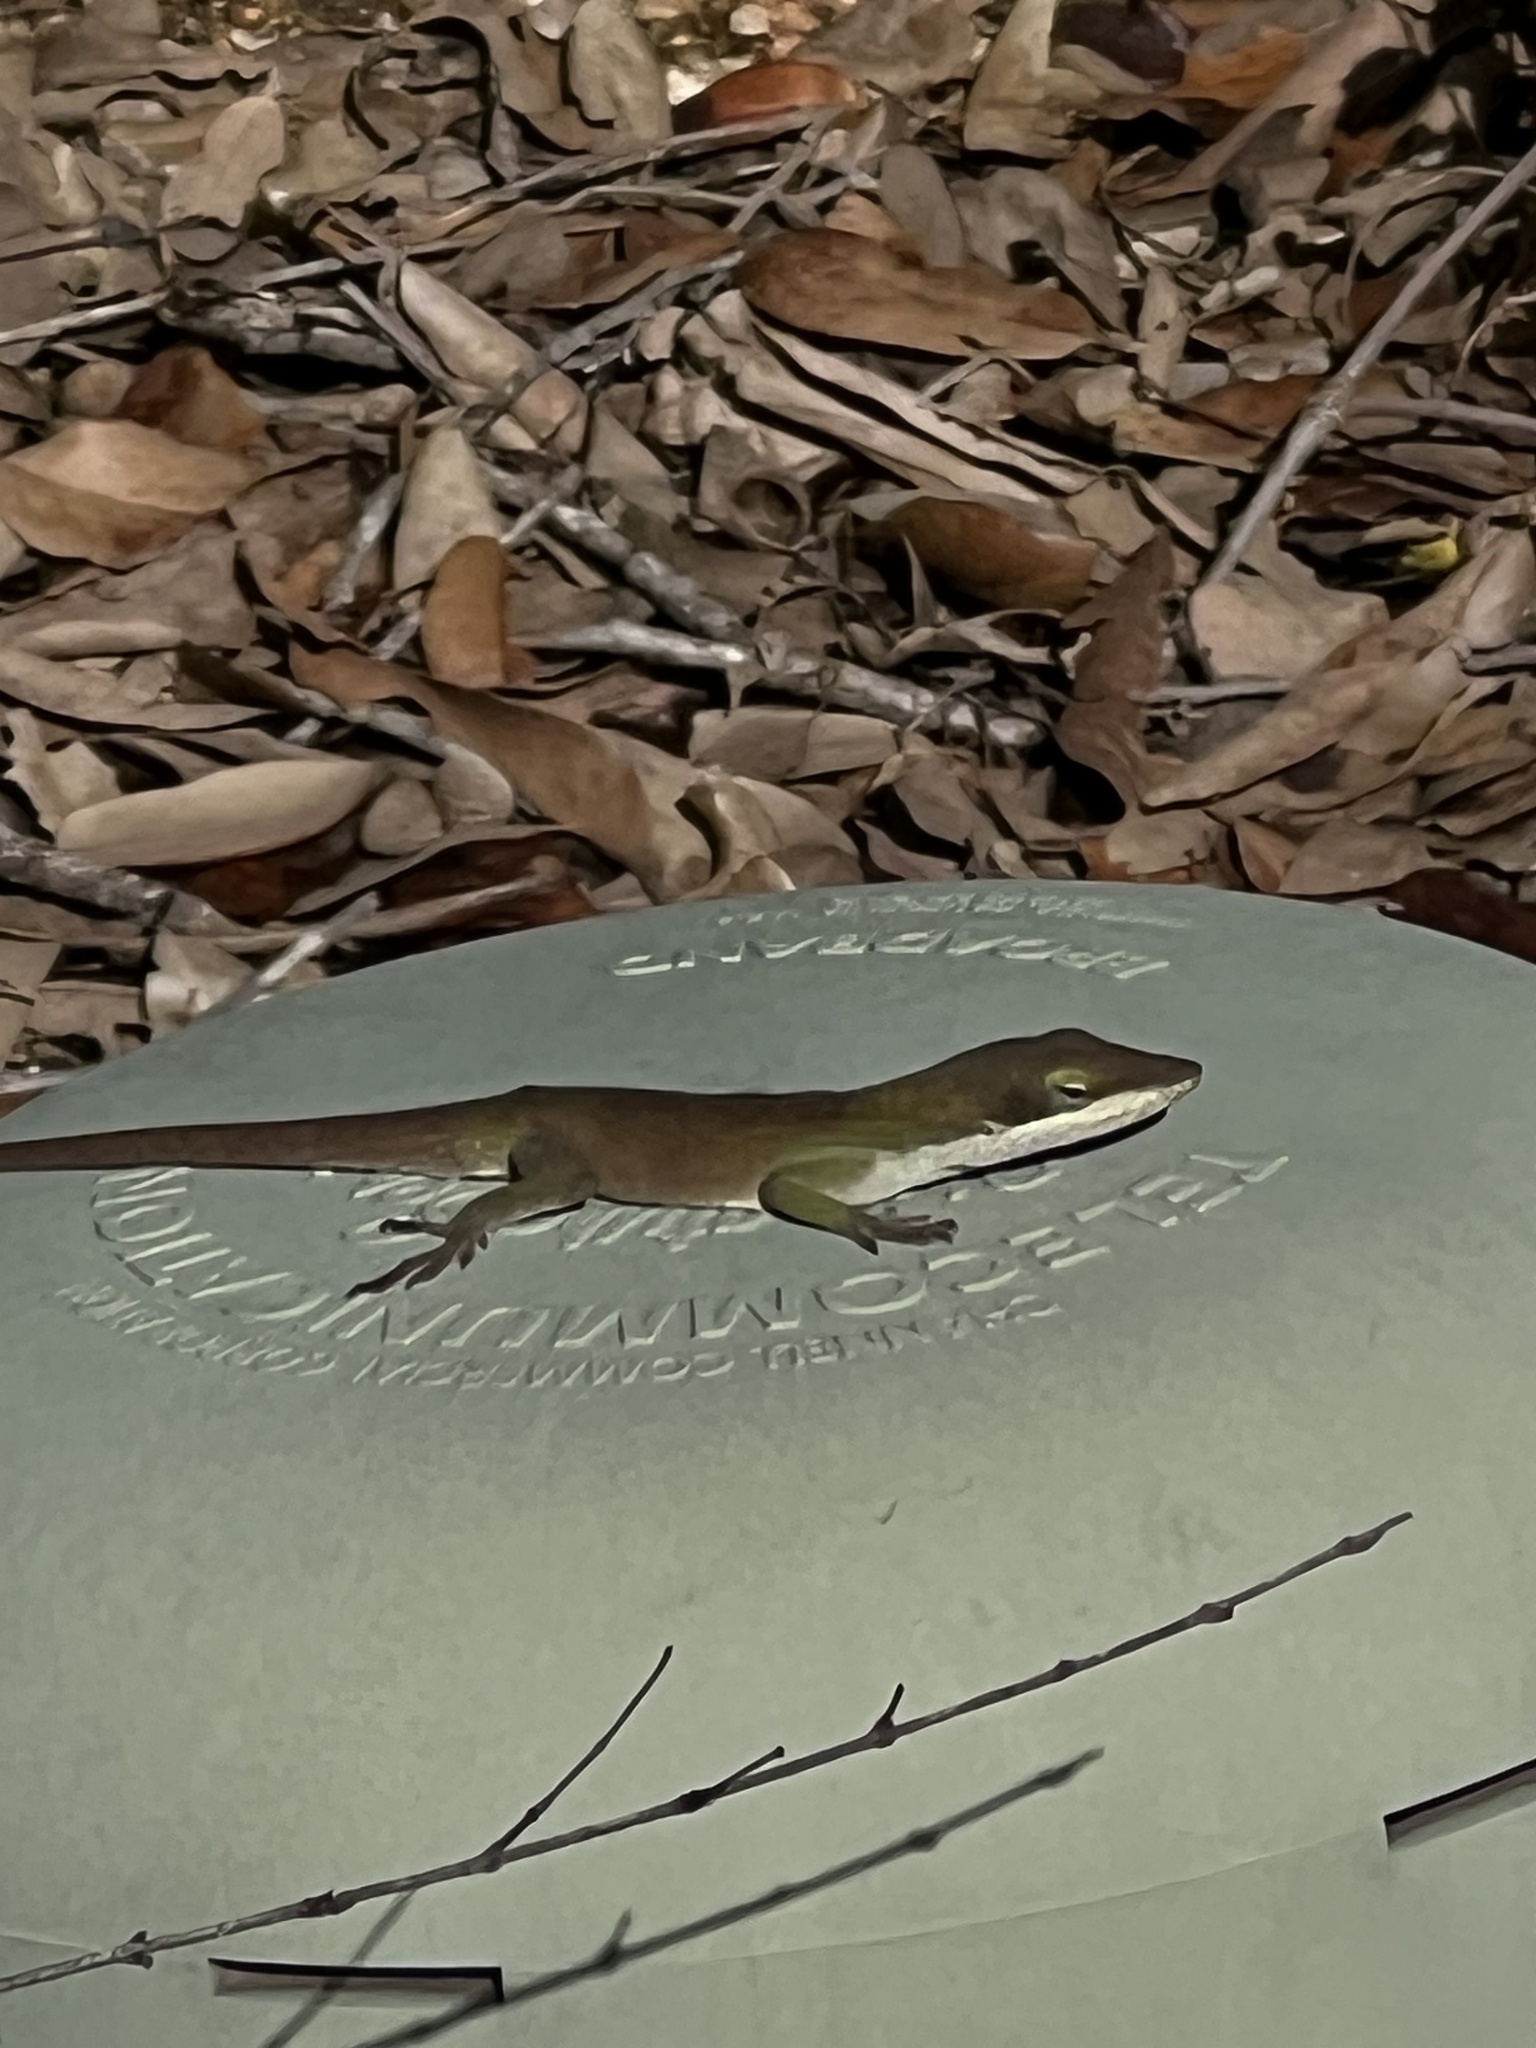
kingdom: Animalia
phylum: Chordata
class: Squamata
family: Dactyloidae
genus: Anolis
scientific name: Anolis carolinensis
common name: Green anole
